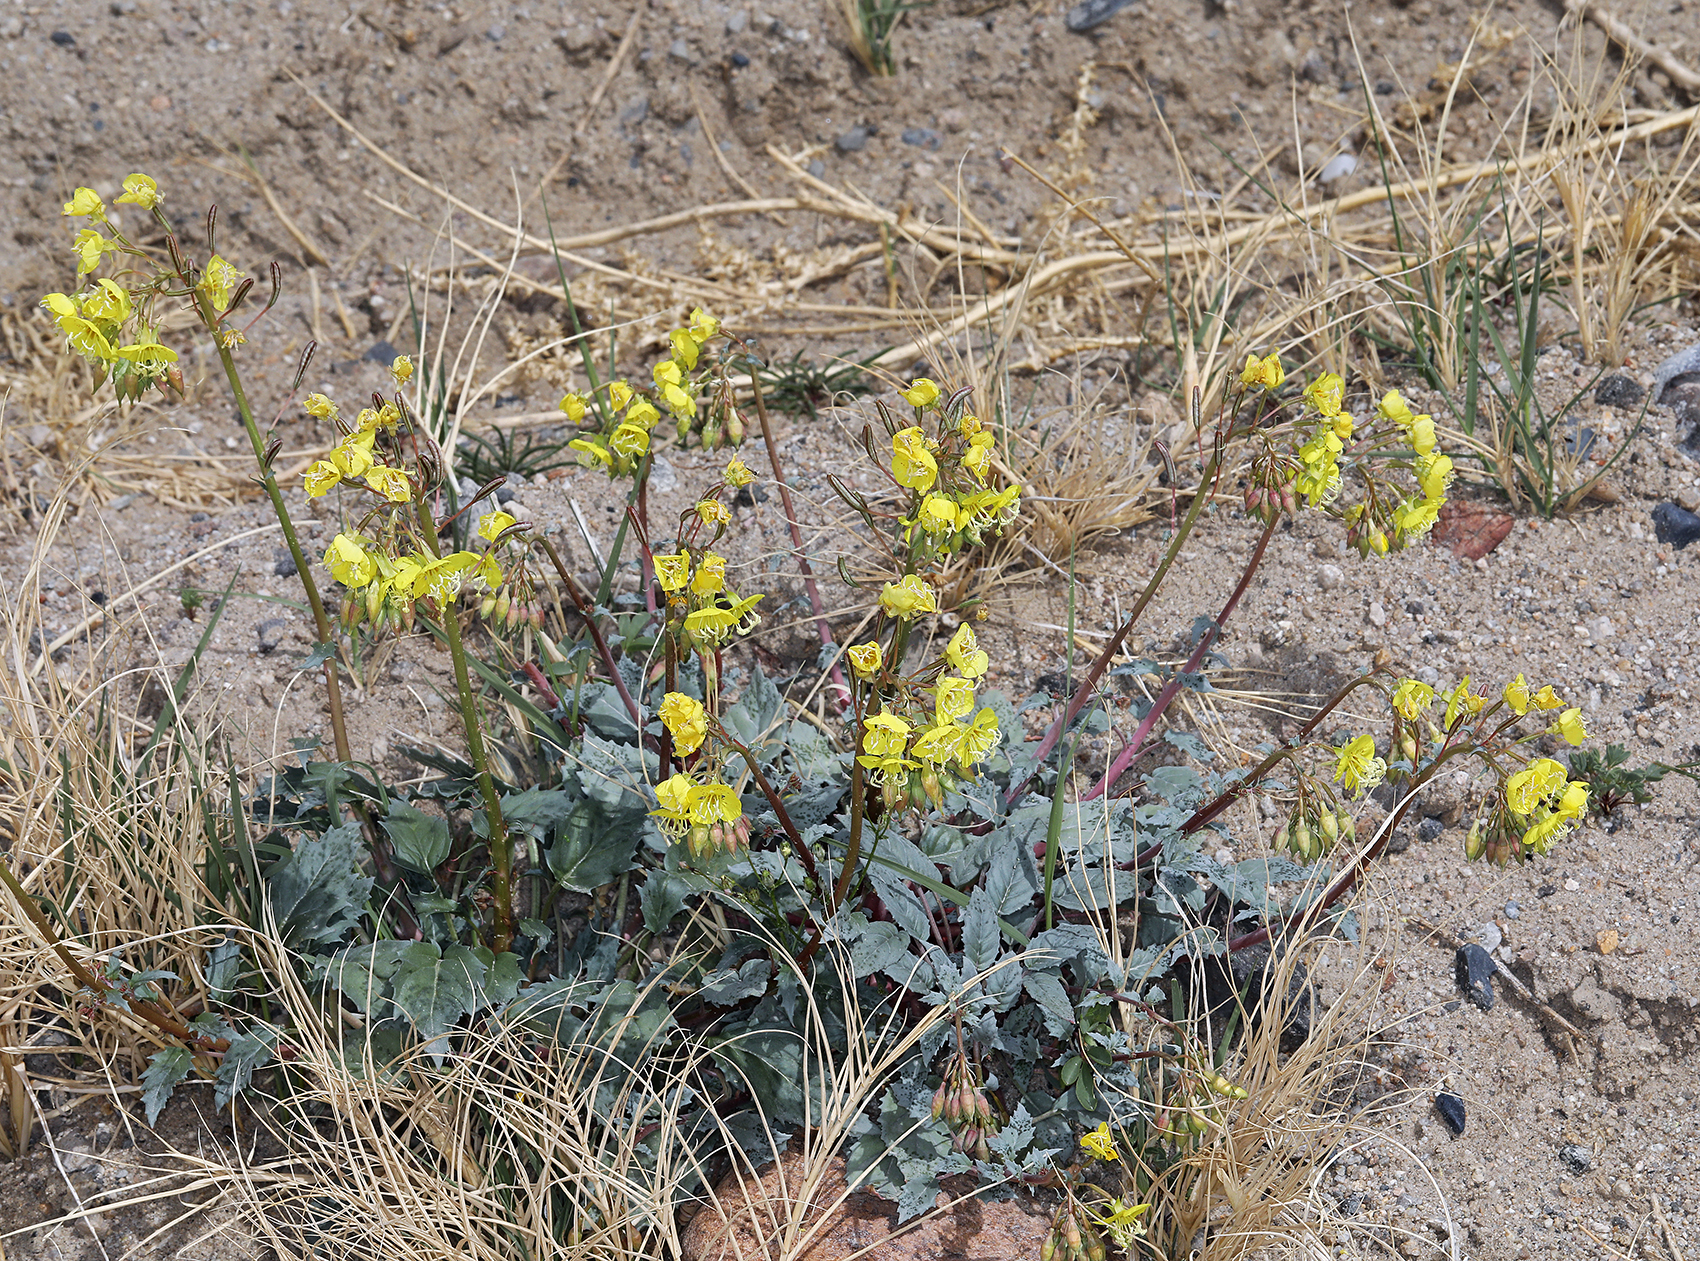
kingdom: Plantae
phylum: Tracheophyta
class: Magnoliopsida
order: Myrtales
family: Onagraceae
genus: Chylismia
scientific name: Chylismia claviformis
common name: Browneyes
